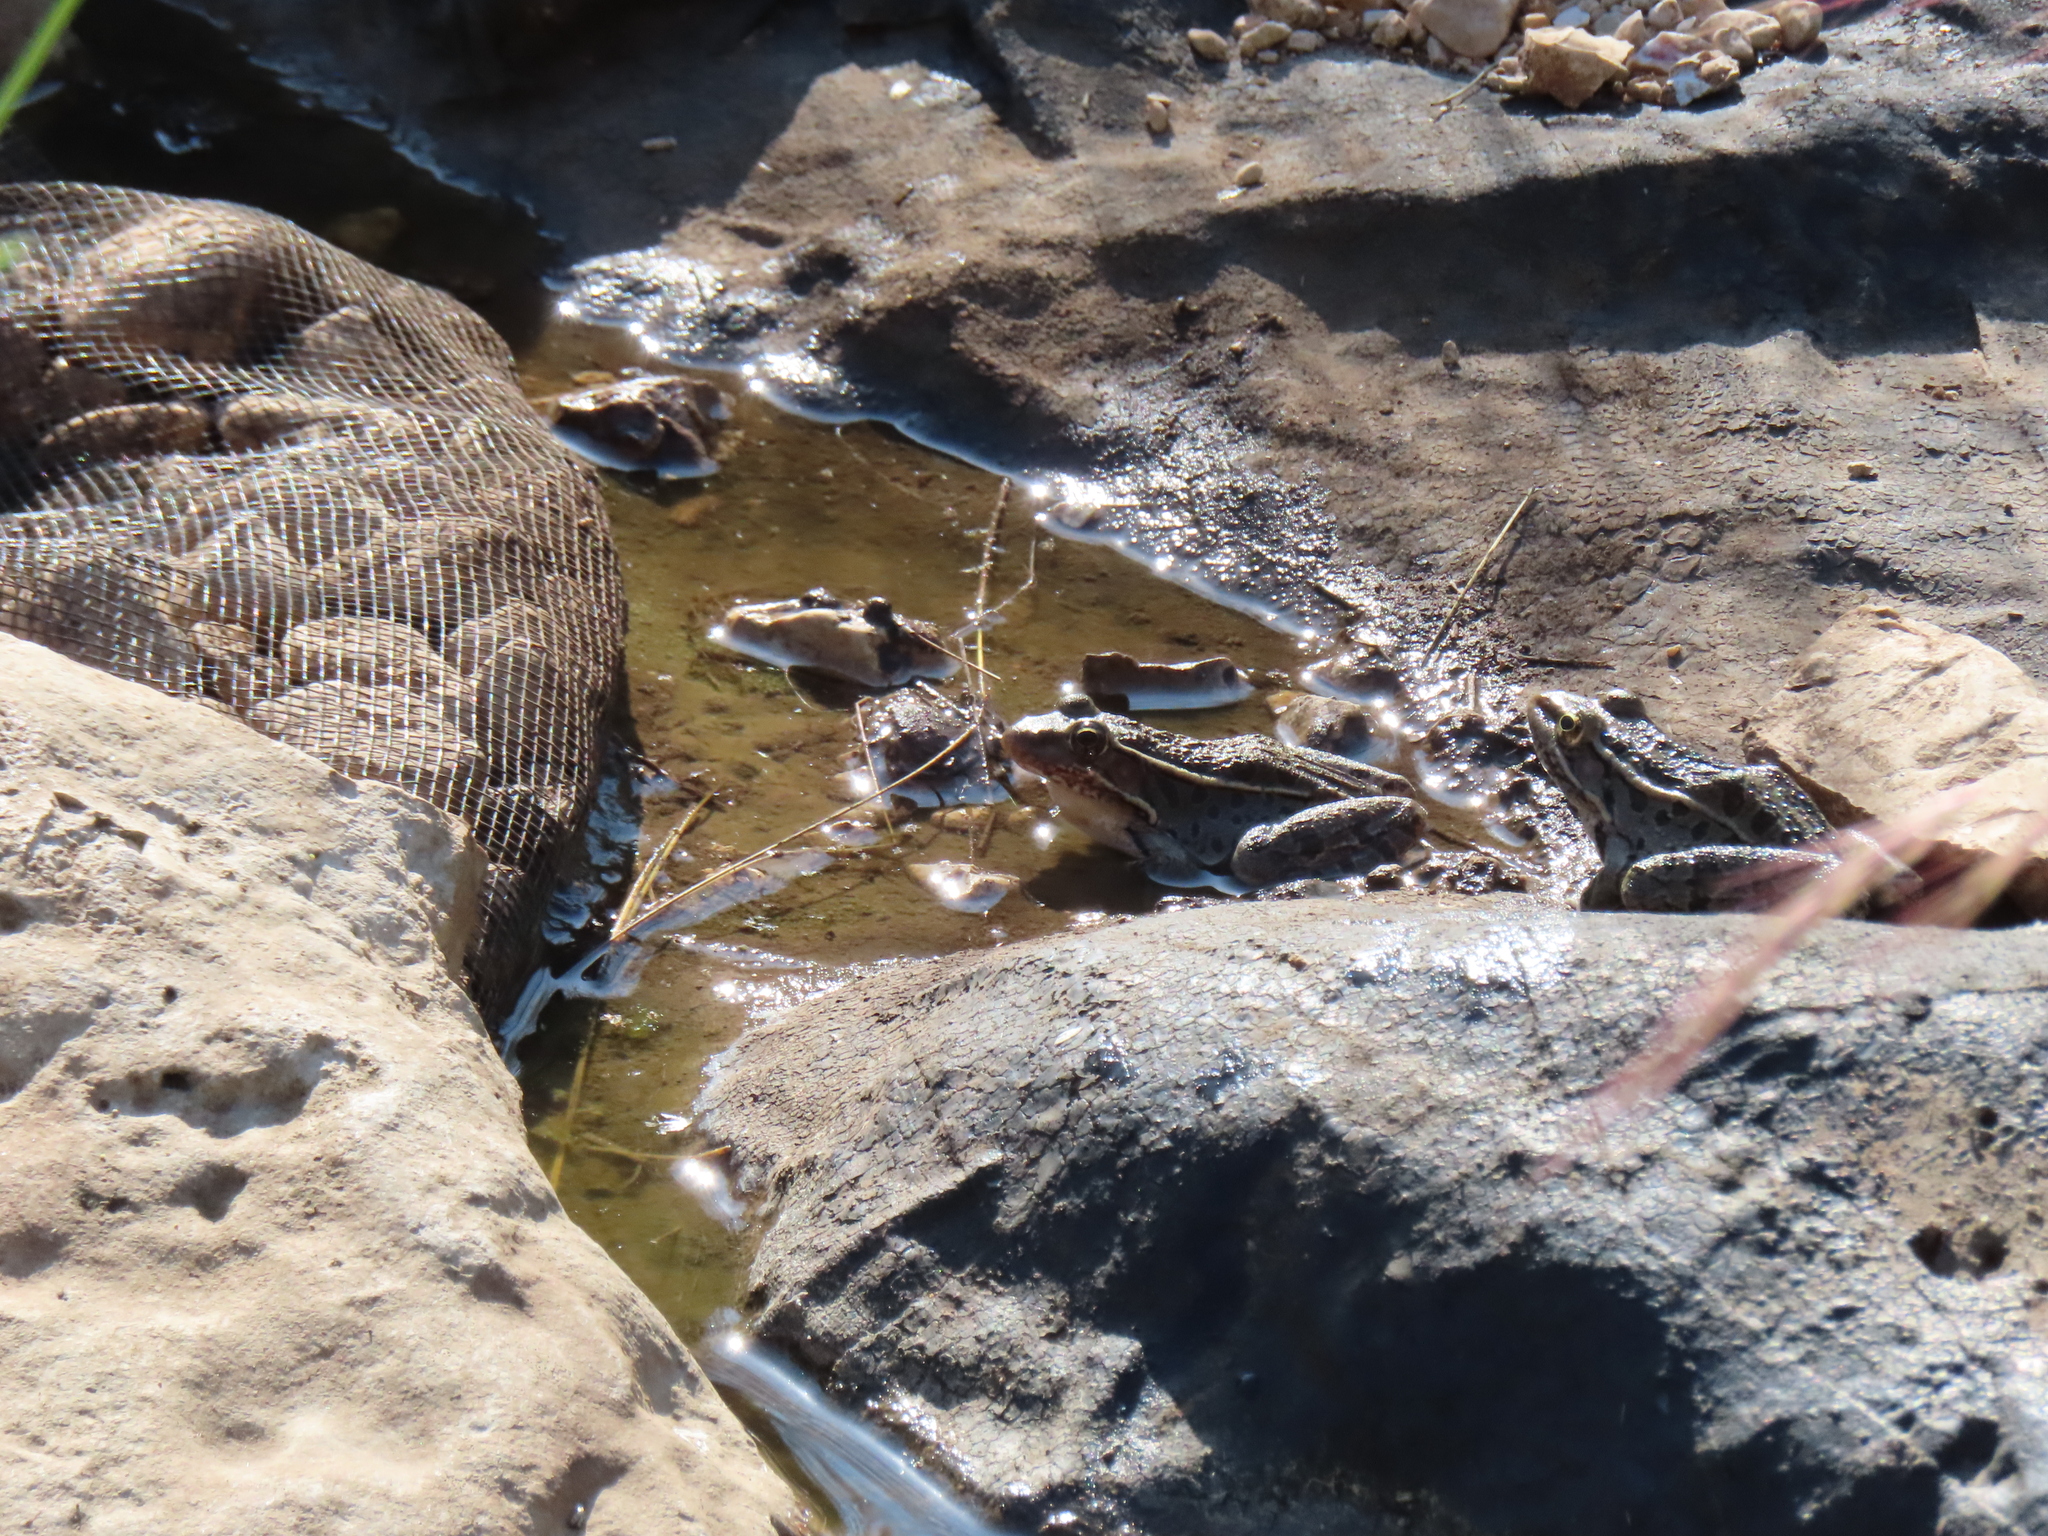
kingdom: Animalia
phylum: Chordata
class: Amphibia
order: Anura
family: Ranidae
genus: Lithobates
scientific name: Lithobates berlandieri
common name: Rio grande leopard frog
